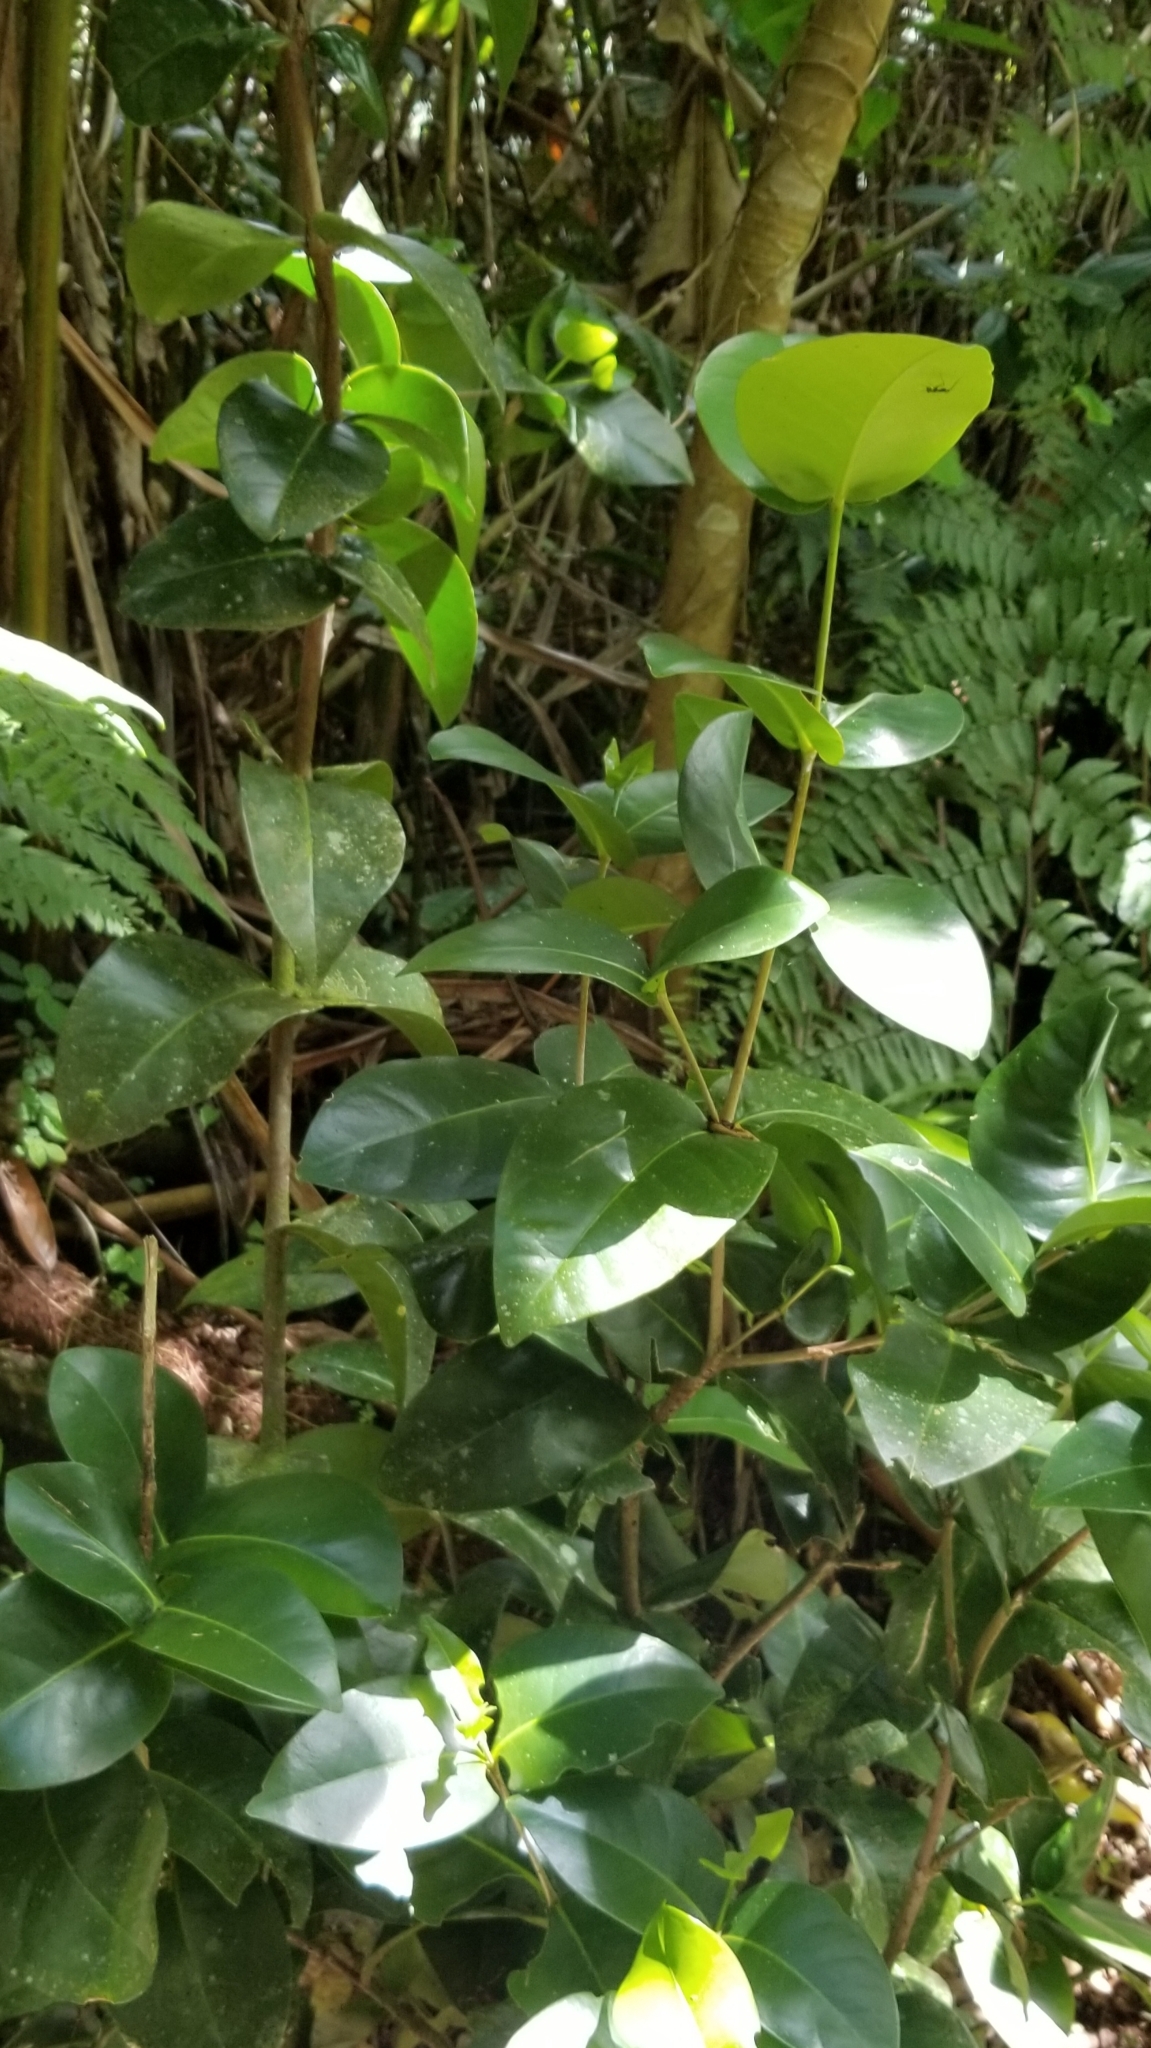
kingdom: Plantae
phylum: Tracheophyta
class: Magnoliopsida
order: Sapindales
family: Rutaceae
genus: Ravenia
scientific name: Ravenia urbani
